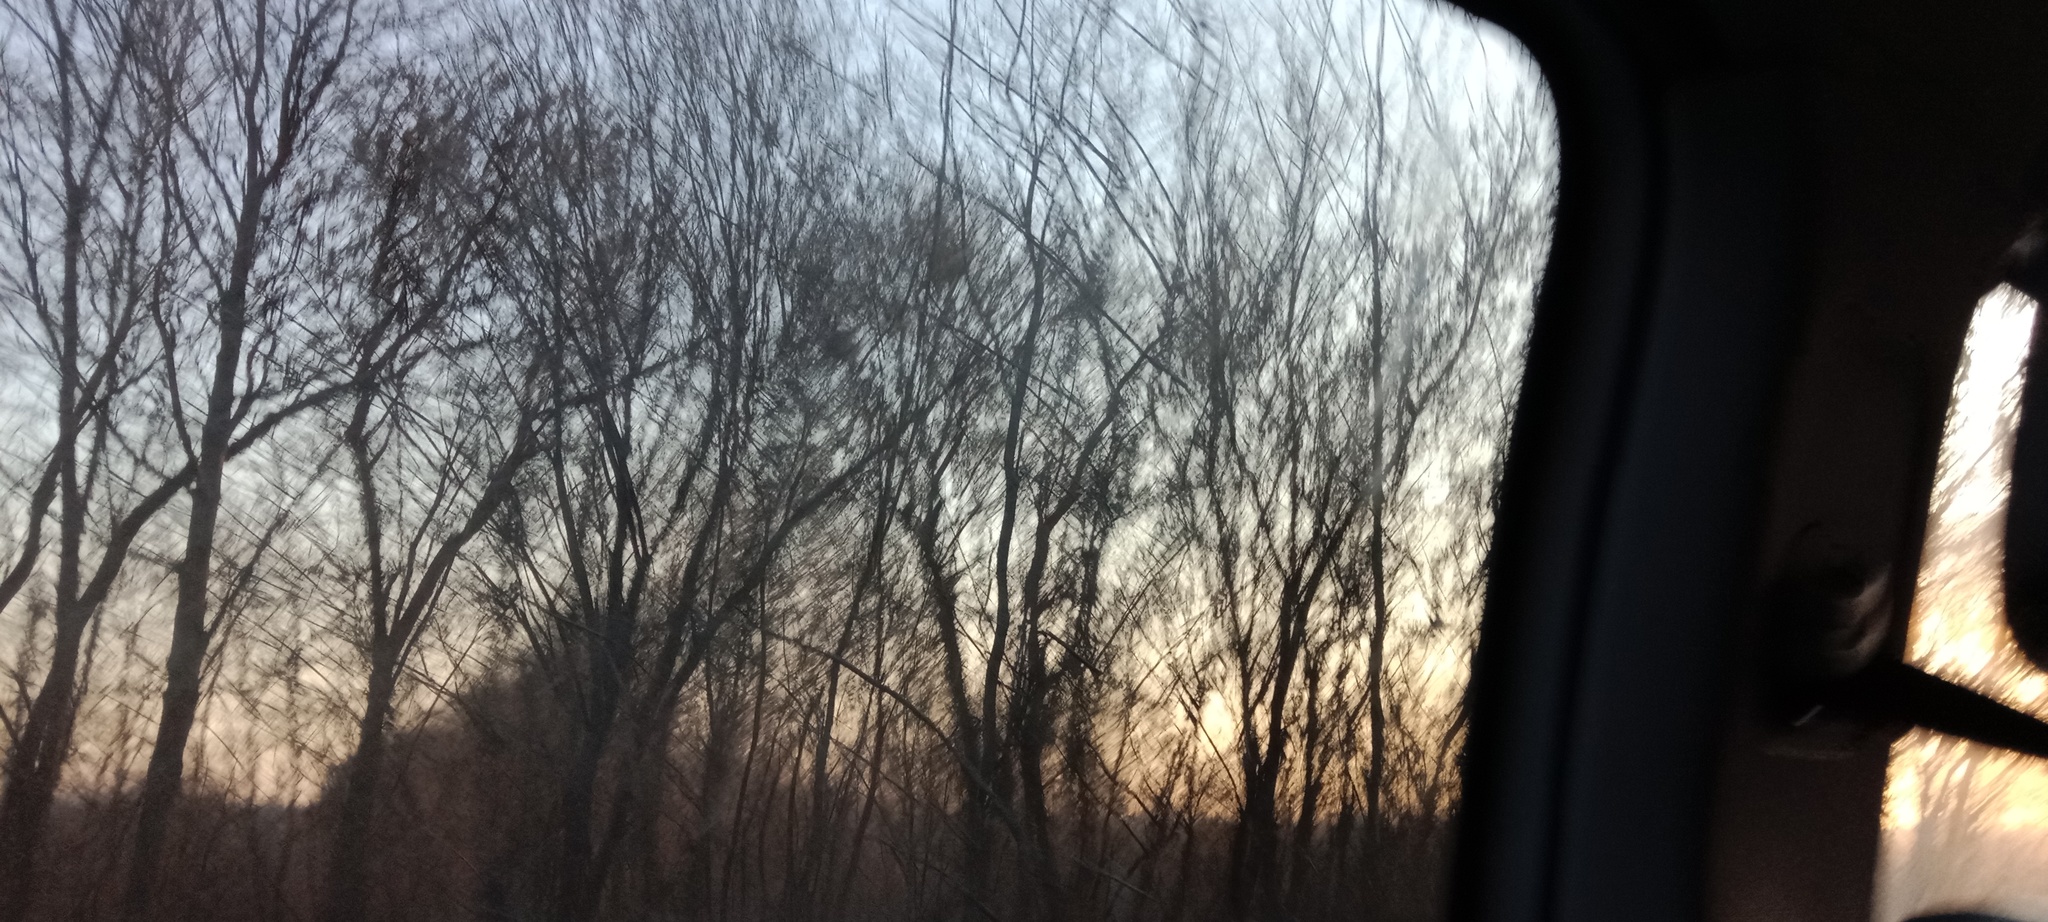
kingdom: Plantae
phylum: Tracheophyta
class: Magnoliopsida
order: Santalales
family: Viscaceae
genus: Viscum
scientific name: Viscum album
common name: Mistletoe
